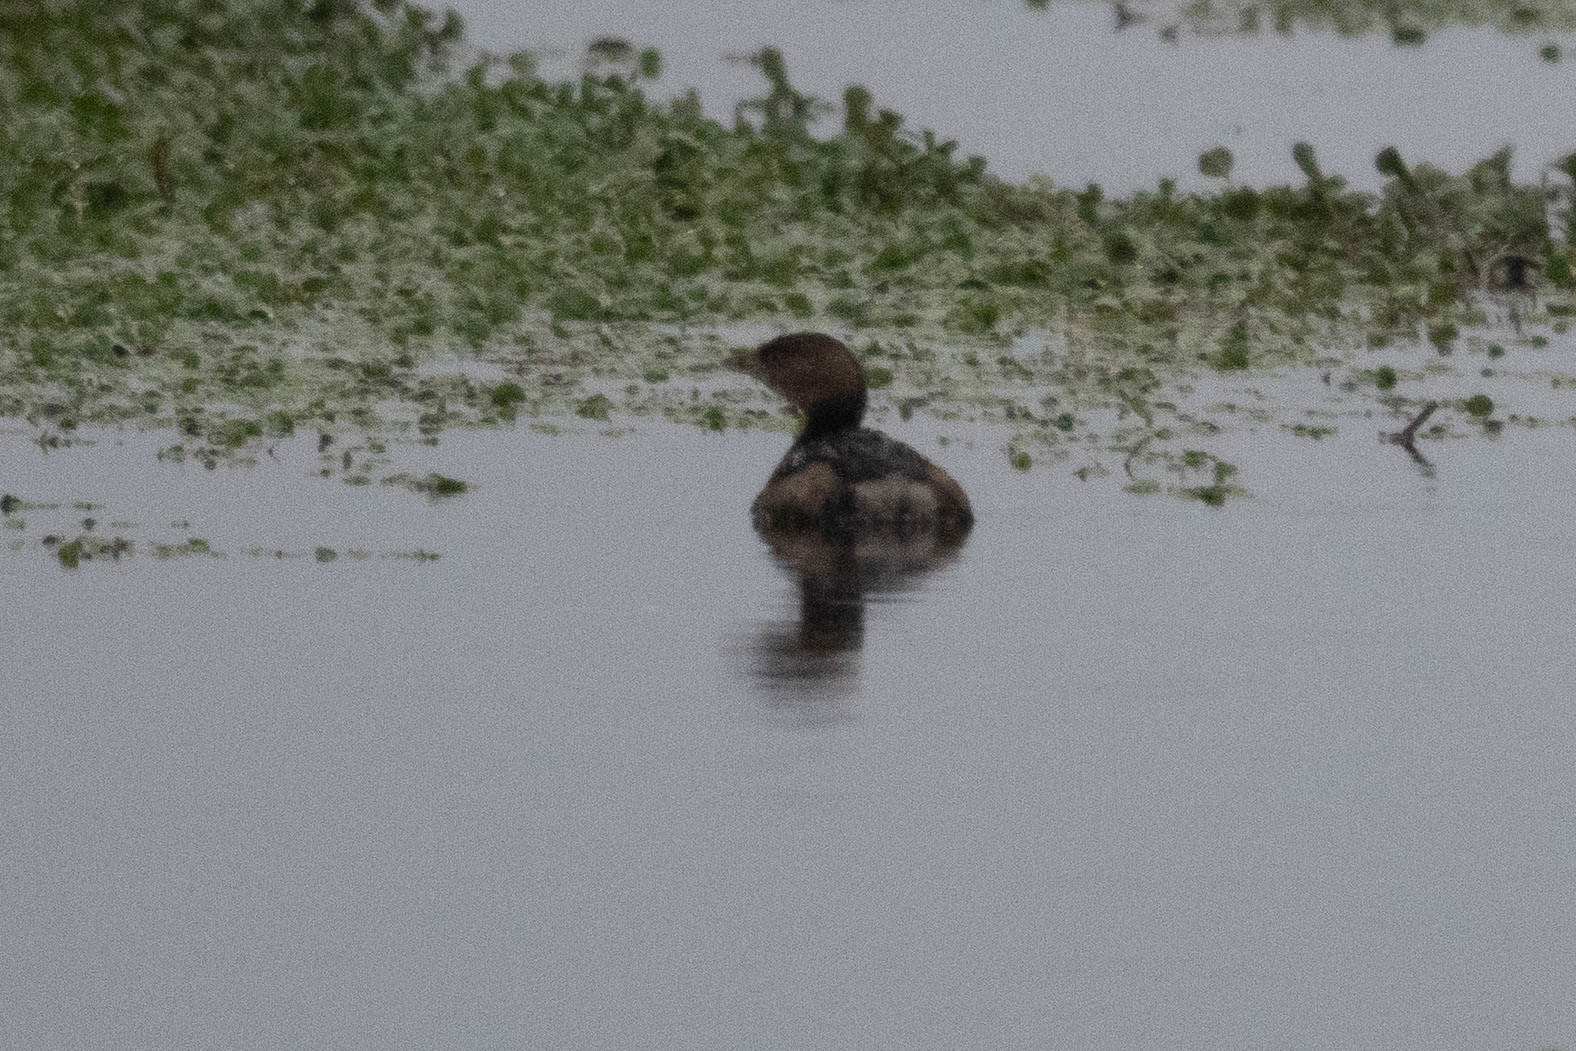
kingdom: Animalia
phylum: Chordata
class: Aves
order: Podicipediformes
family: Podicipedidae
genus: Podilymbus
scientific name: Podilymbus podiceps
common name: Pied-billed grebe
